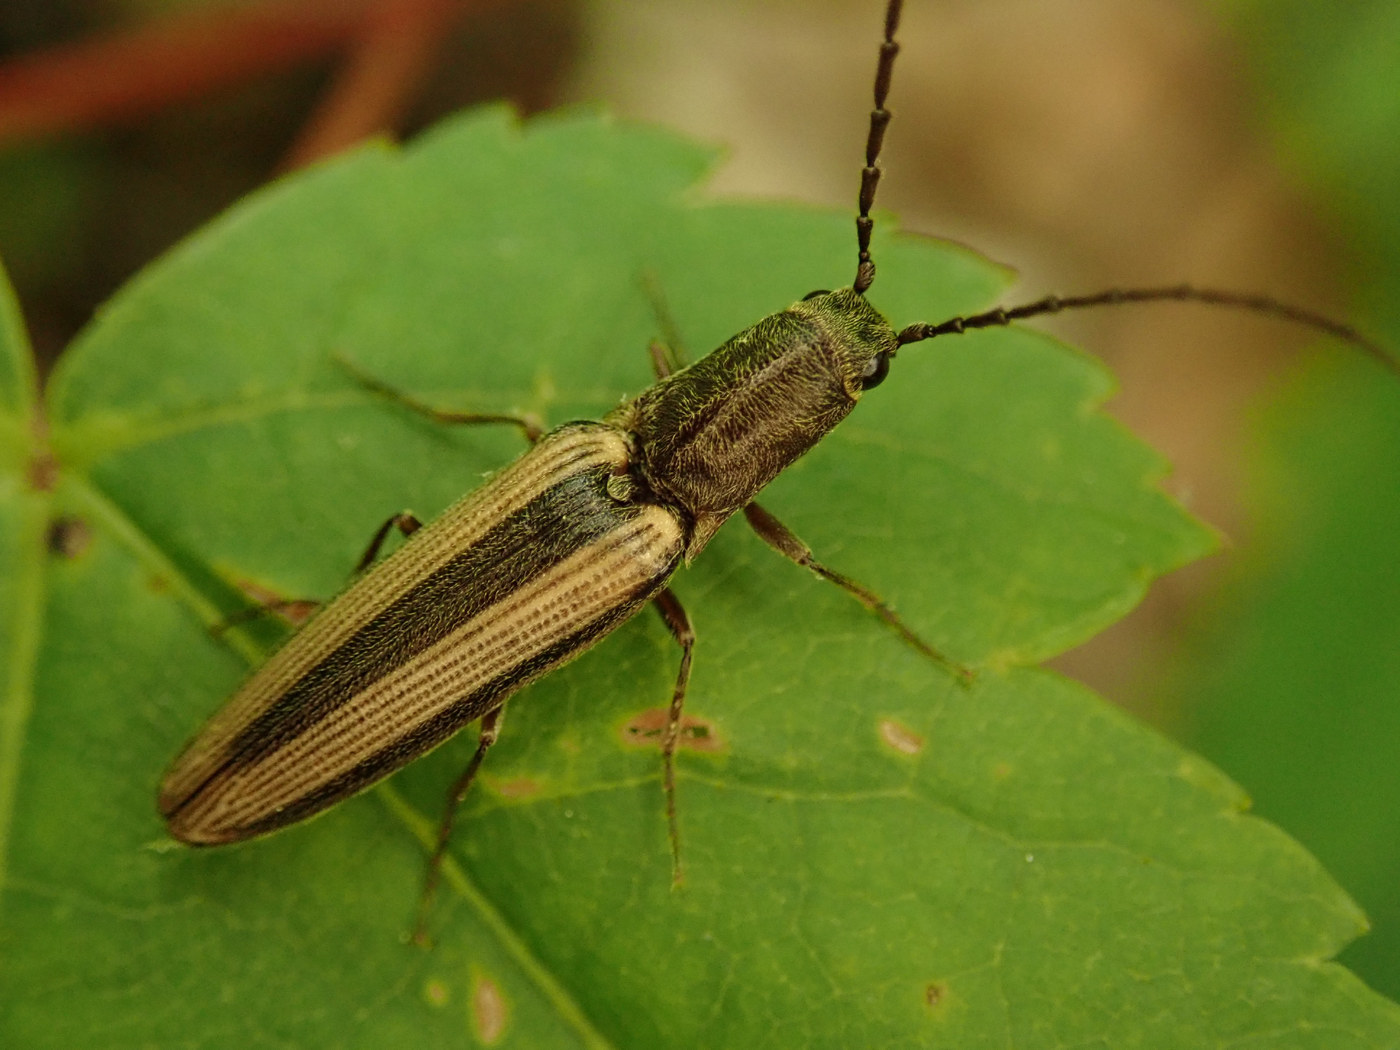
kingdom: Animalia
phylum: Arthropoda
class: Insecta
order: Coleoptera
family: Elateridae
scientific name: Elateridae
